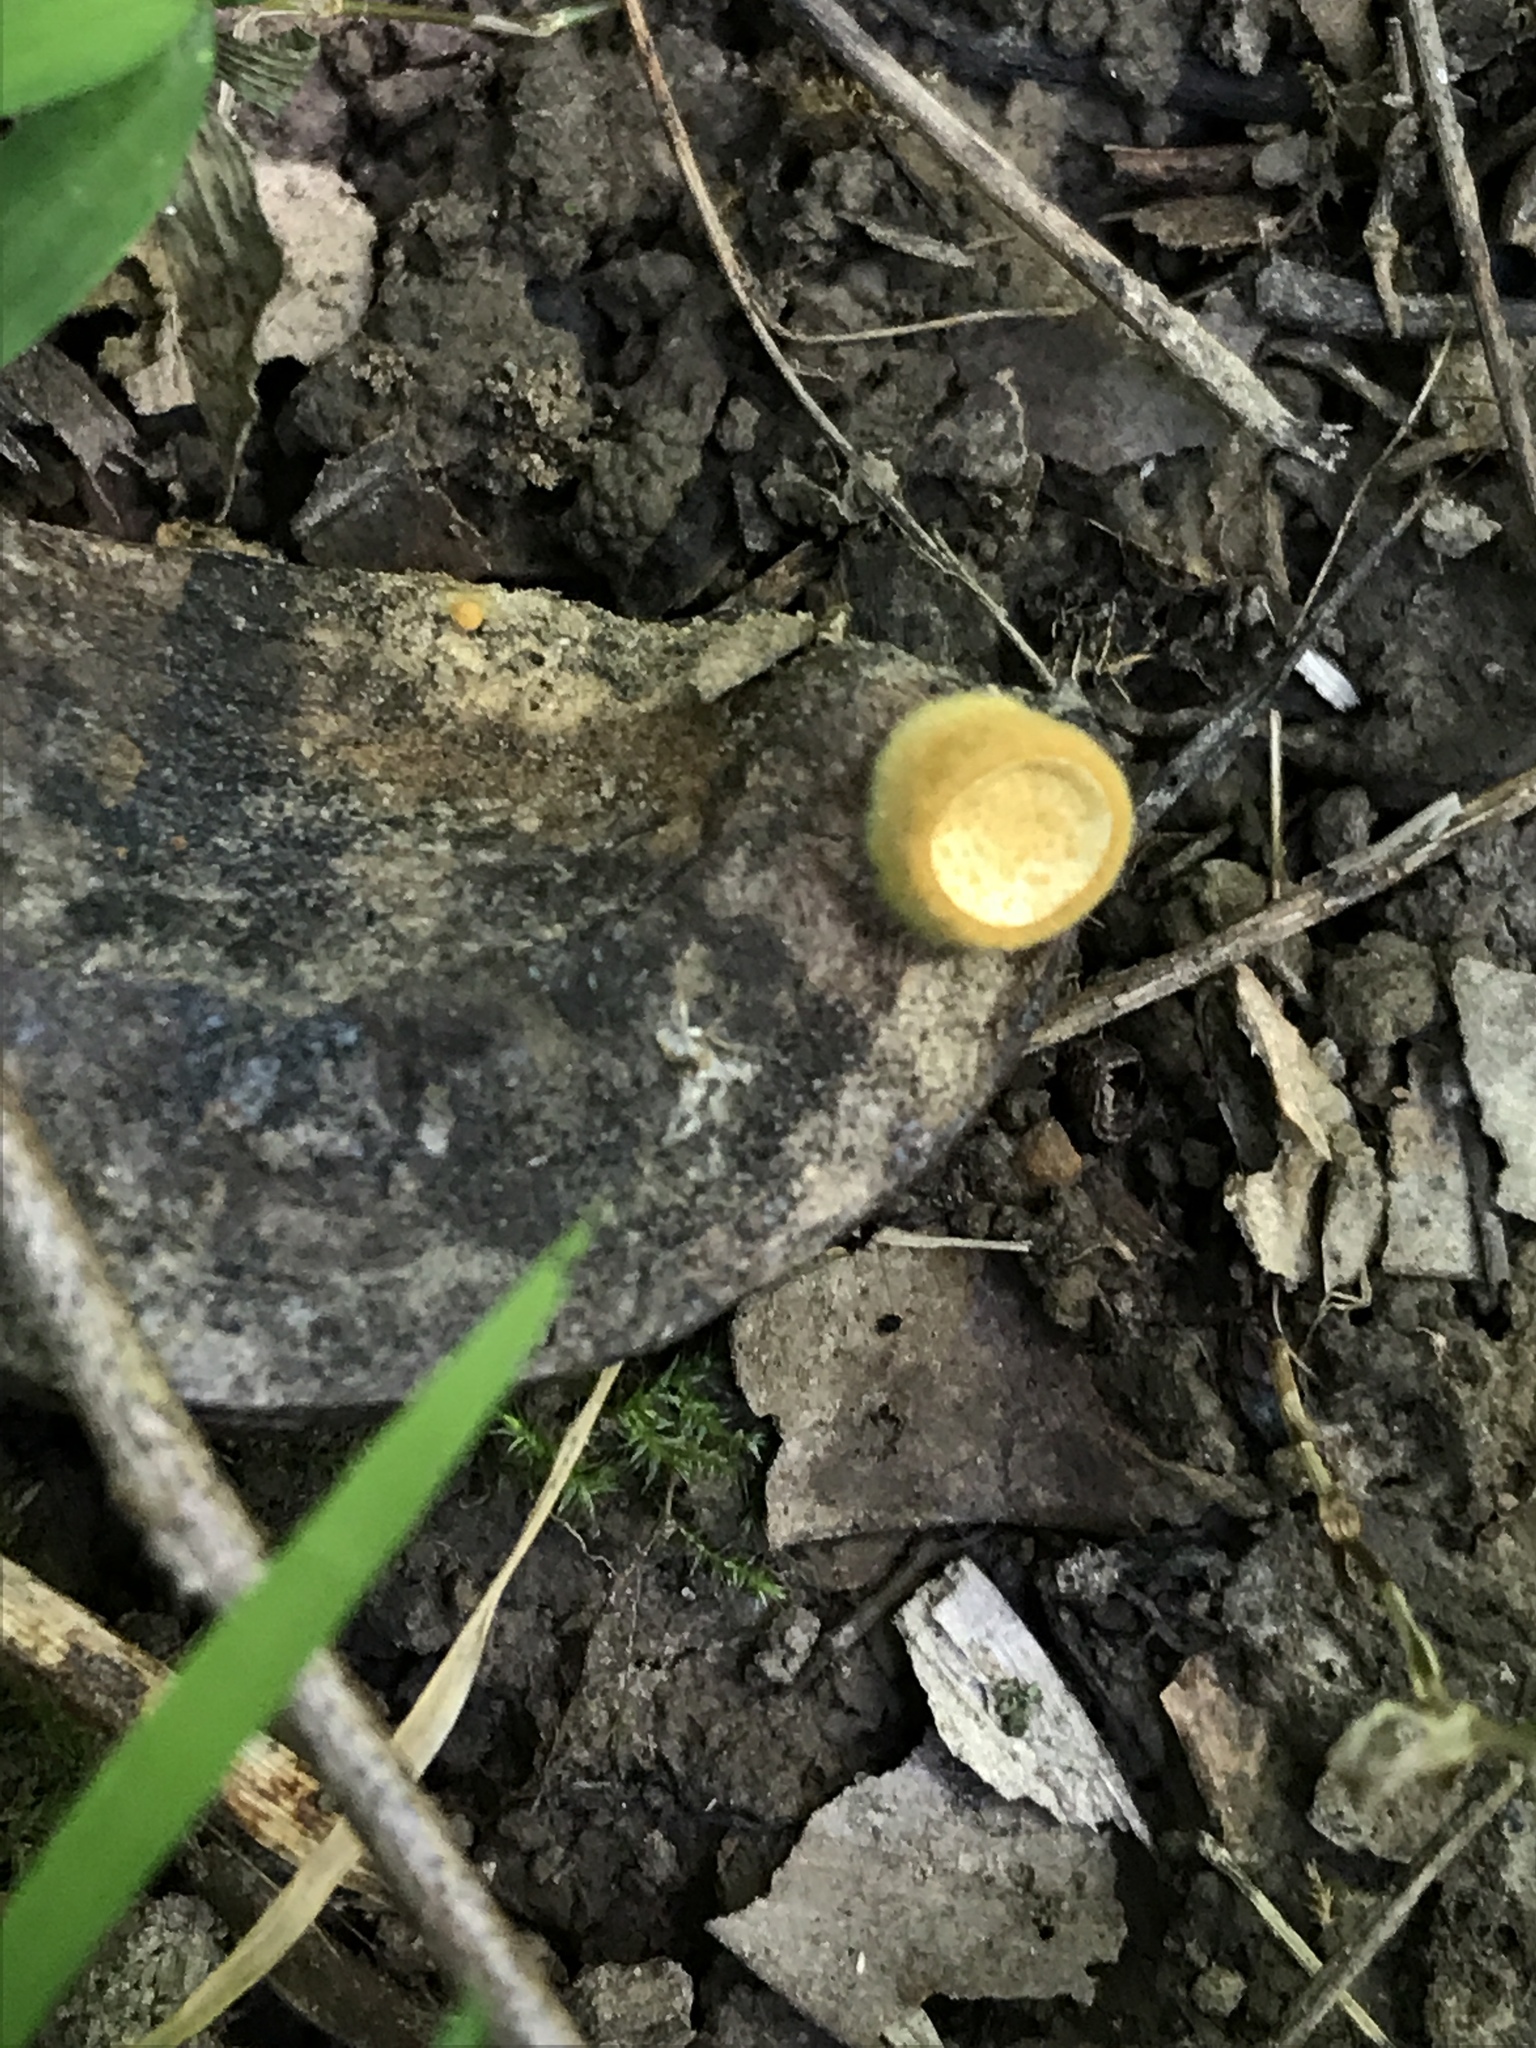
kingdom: Fungi
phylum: Basidiomycota
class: Agaricomycetes
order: Agaricales
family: Nidulariaceae
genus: Crucibulum
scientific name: Crucibulum laeve
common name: Common bird's nest
